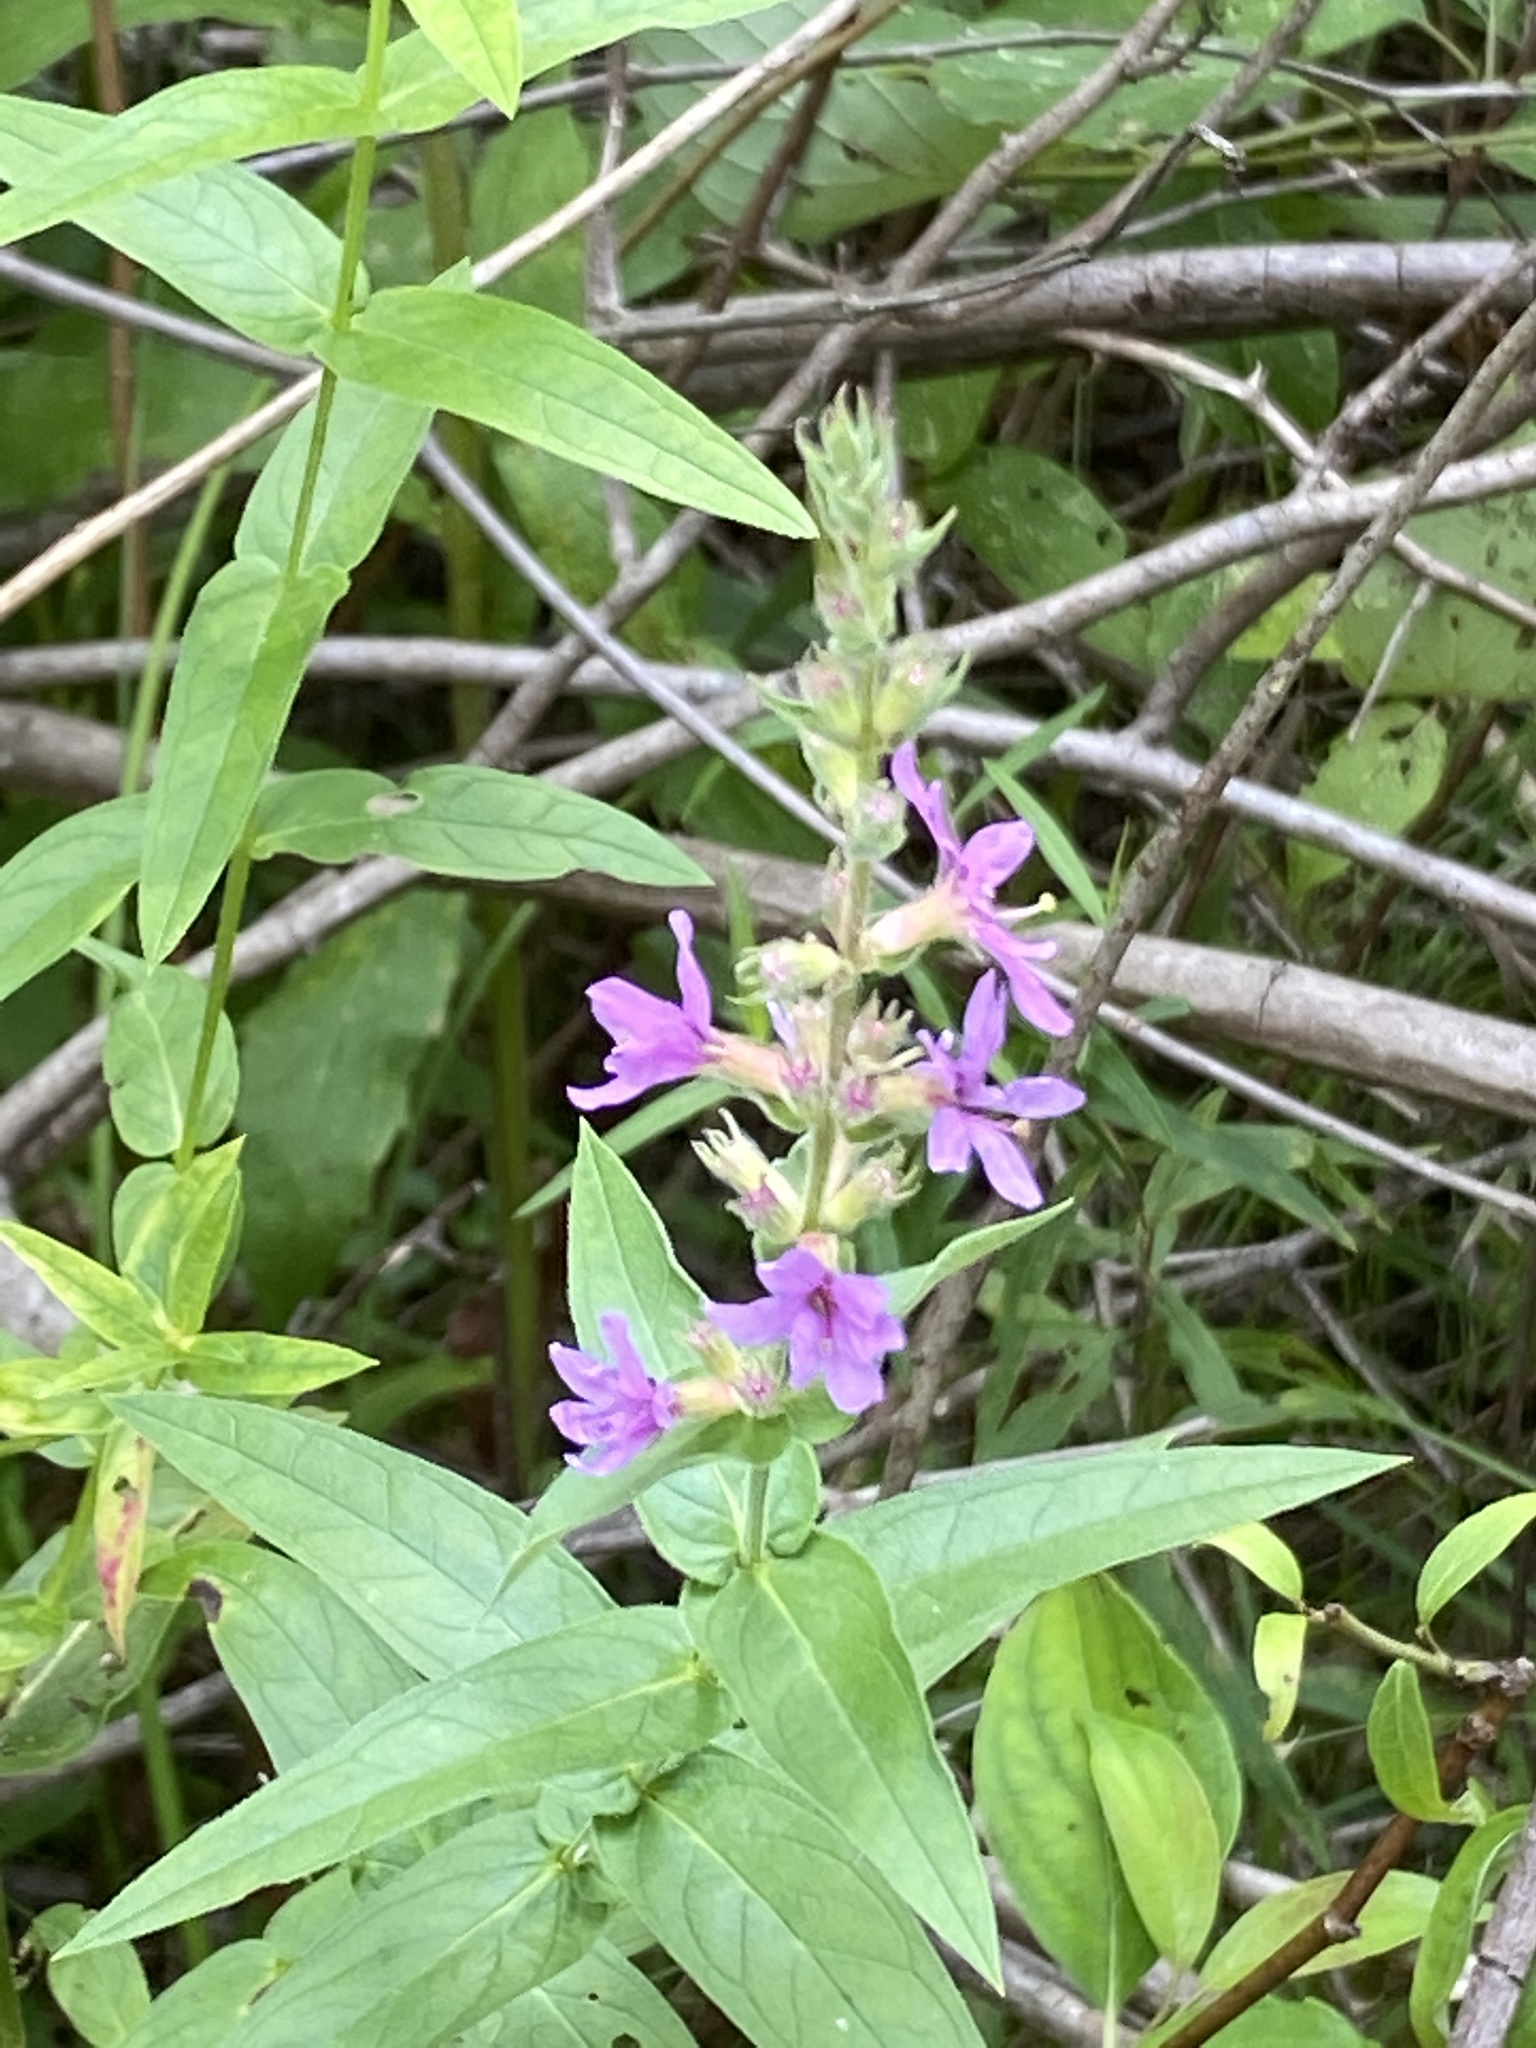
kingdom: Plantae
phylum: Tracheophyta
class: Magnoliopsida
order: Myrtales
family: Lythraceae
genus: Lythrum
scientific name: Lythrum salicaria
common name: Purple loosestrife
